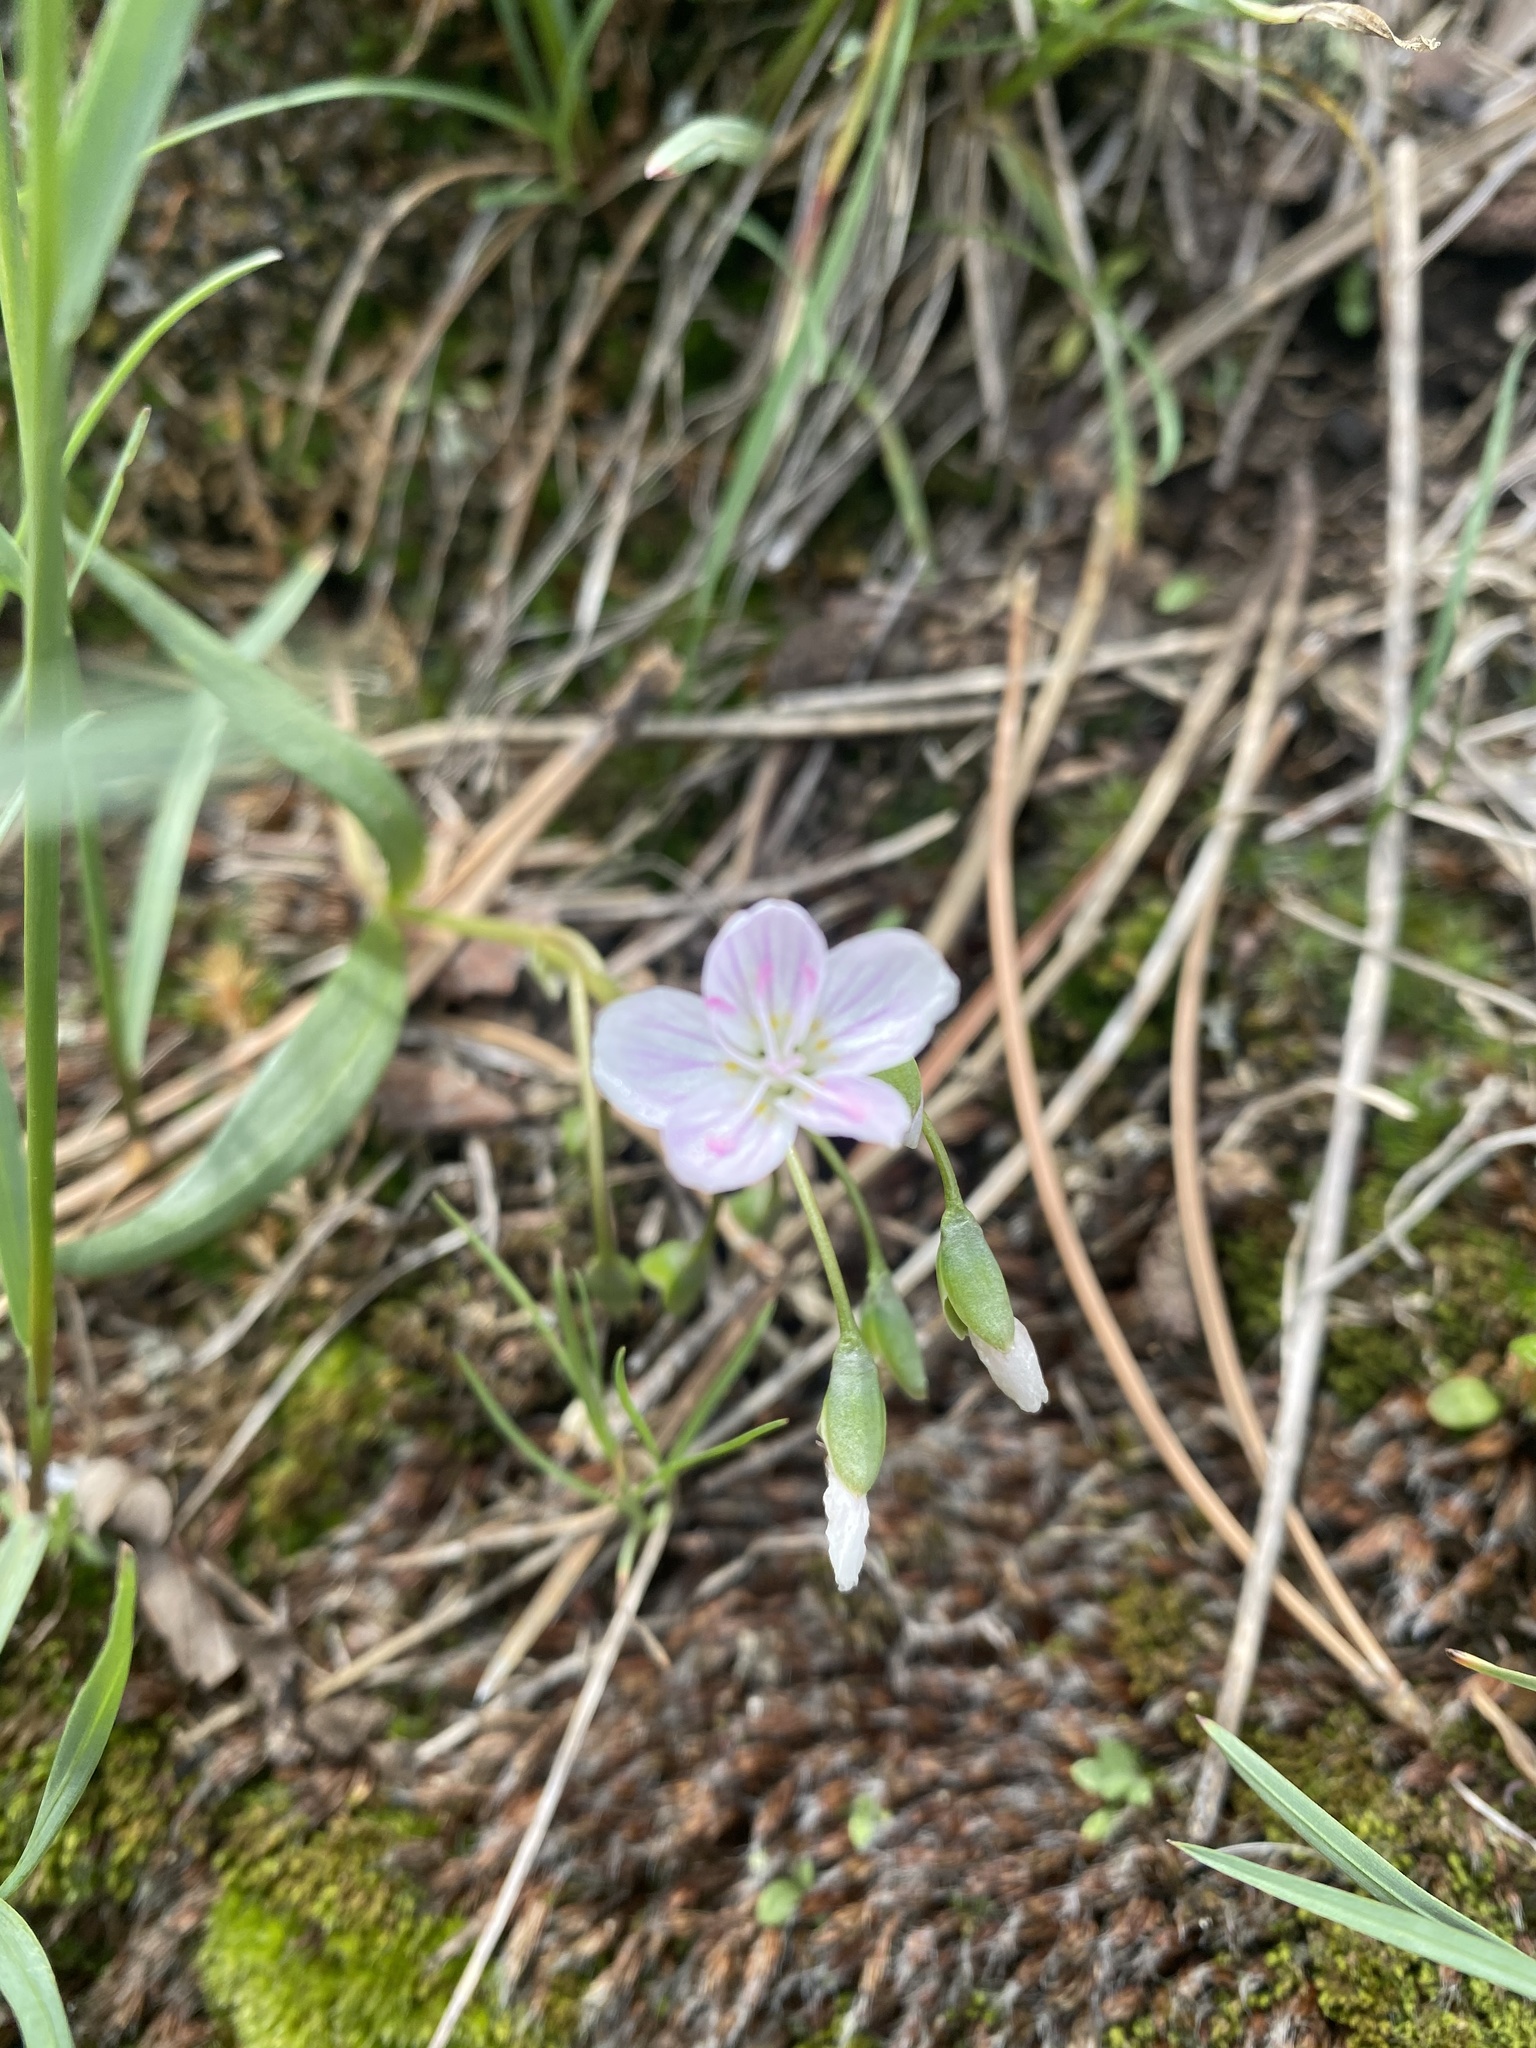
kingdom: Plantae
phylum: Tracheophyta
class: Magnoliopsida
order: Caryophyllales
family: Montiaceae
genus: Claytonia
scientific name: Claytonia rosea
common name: Rocky mountain spring-beauty
